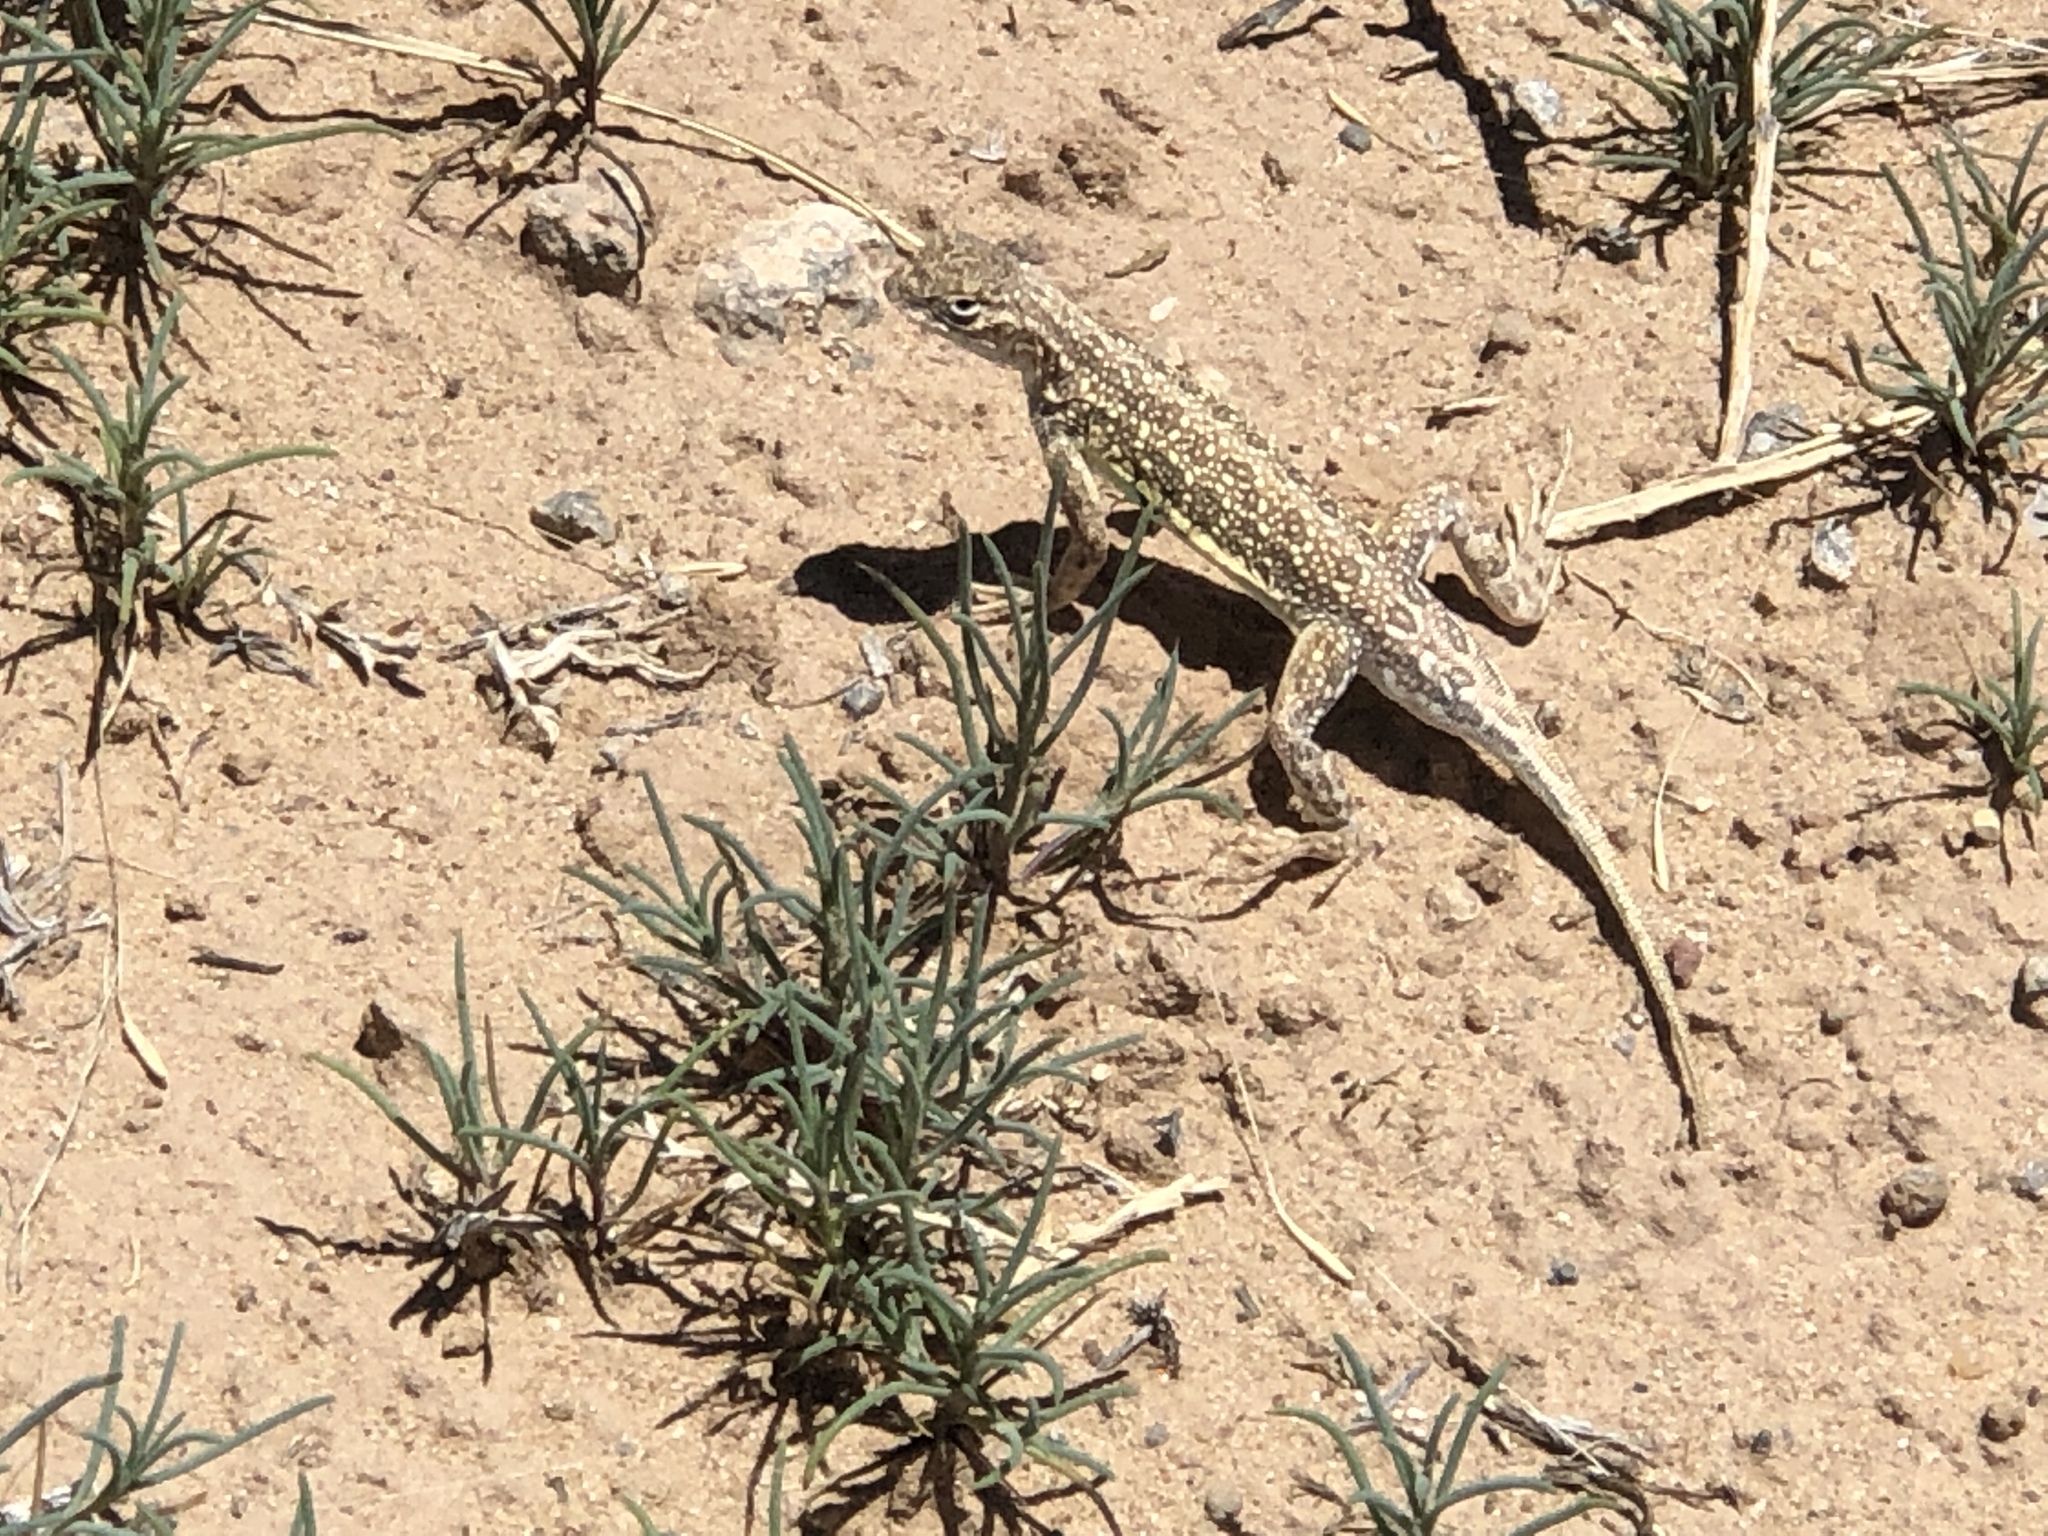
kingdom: Animalia
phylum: Chordata
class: Squamata
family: Phrynosomatidae
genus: Holbrookia
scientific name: Holbrookia maculata
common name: Lesser earless lizard
